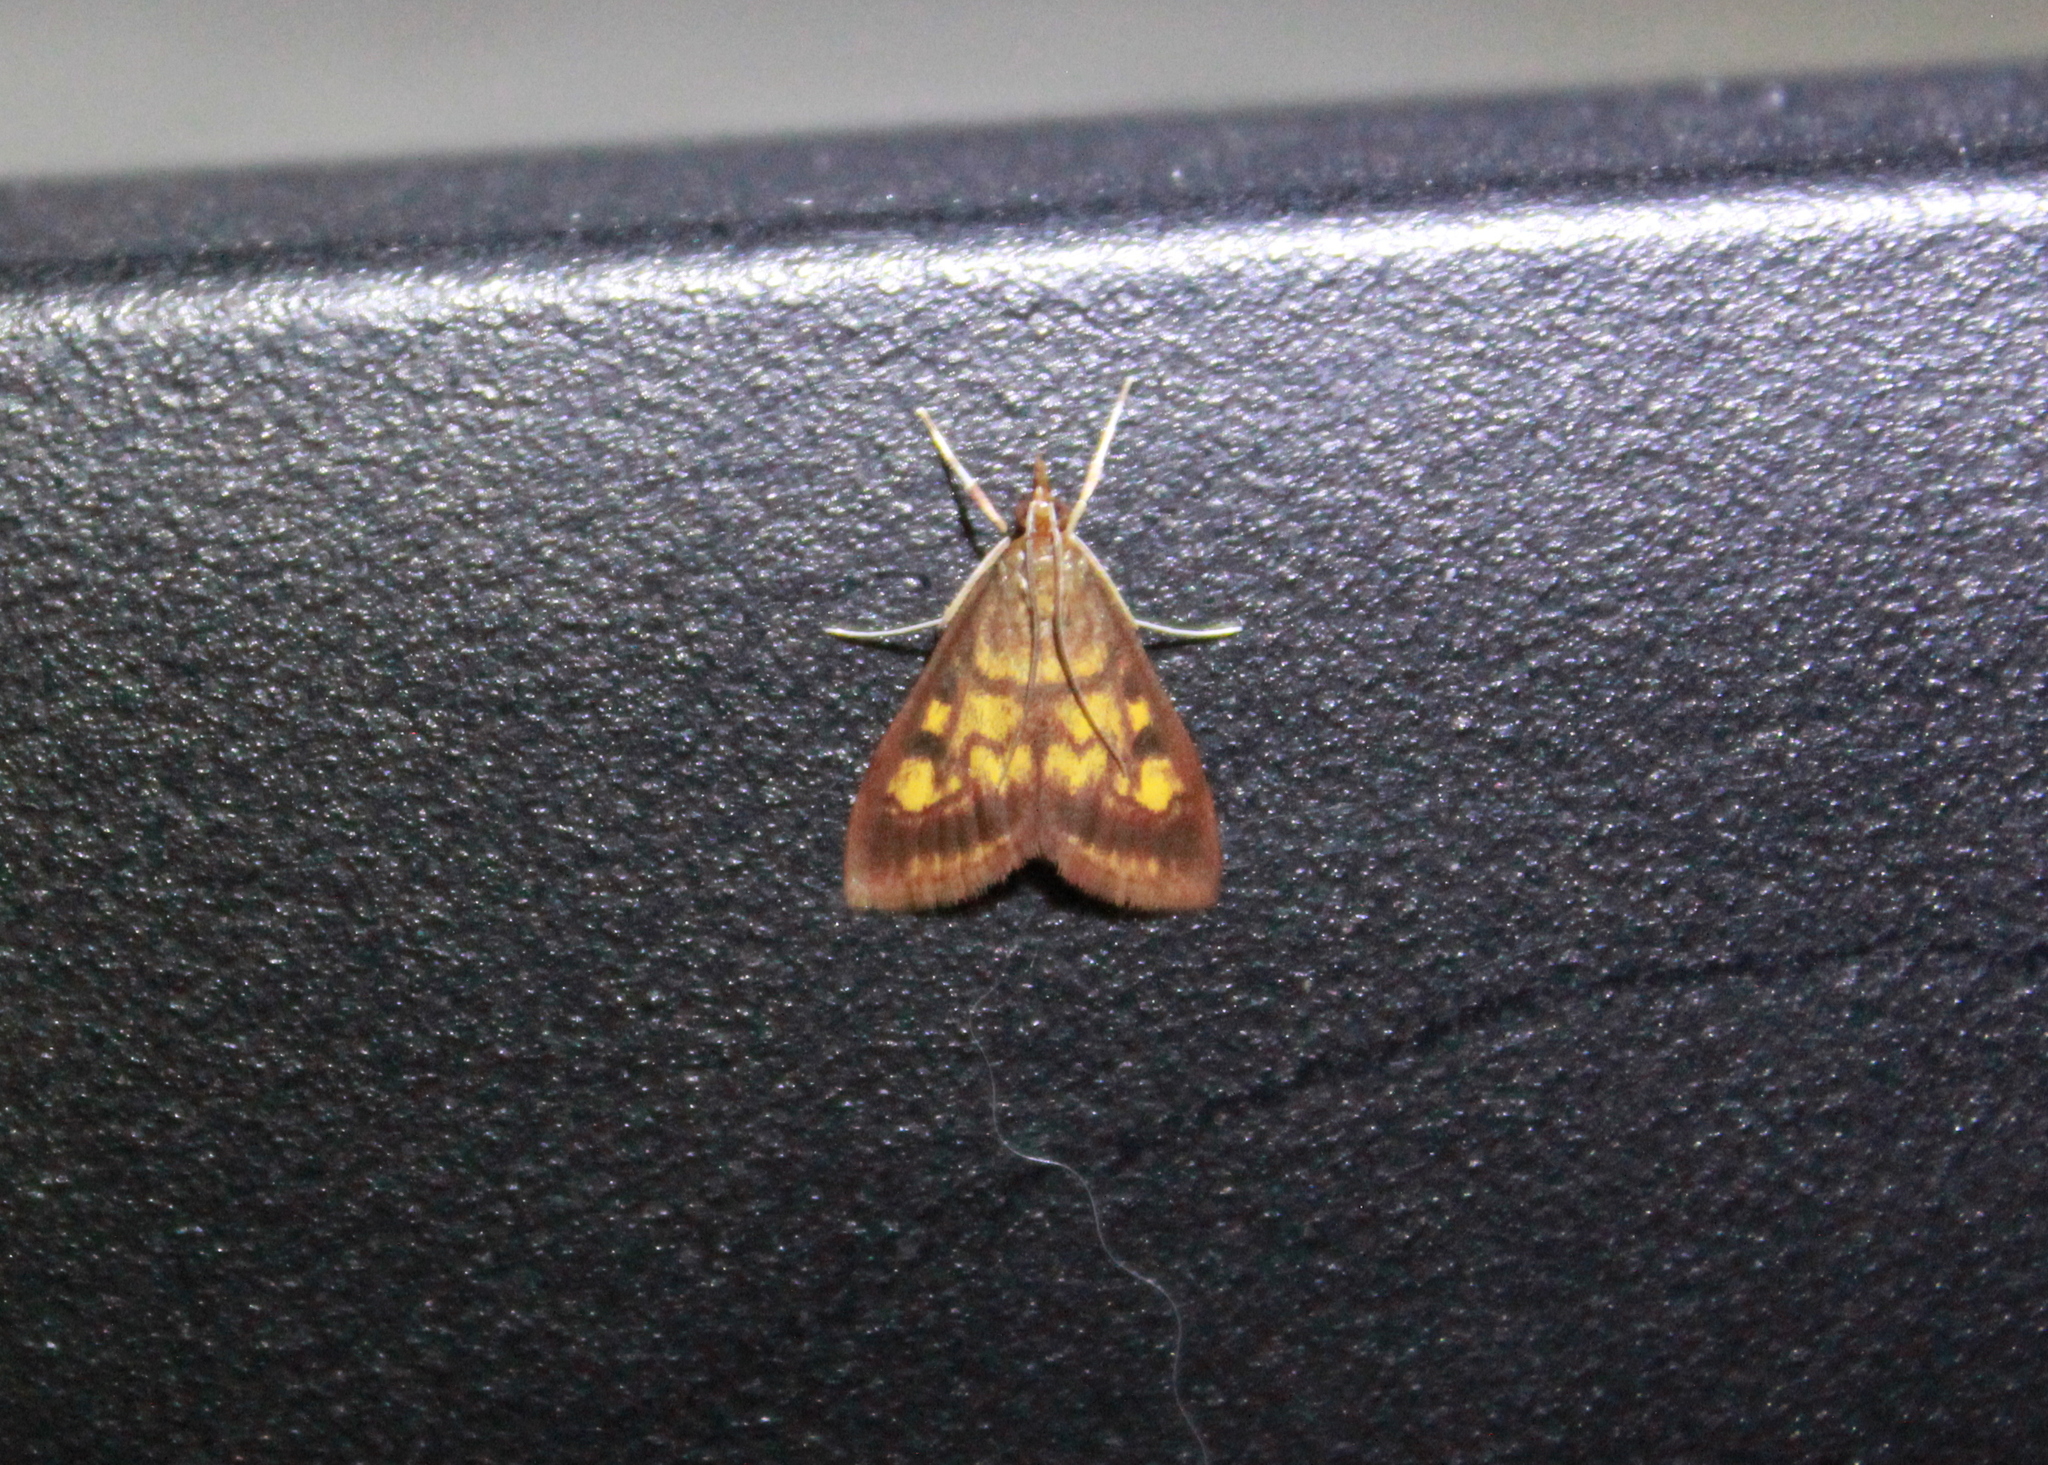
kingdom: Animalia
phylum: Arthropoda
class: Insecta
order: Lepidoptera
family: Crambidae
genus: Pyrausta
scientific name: Pyrausta acrionalis
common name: Mint-loving pyrausta moth
